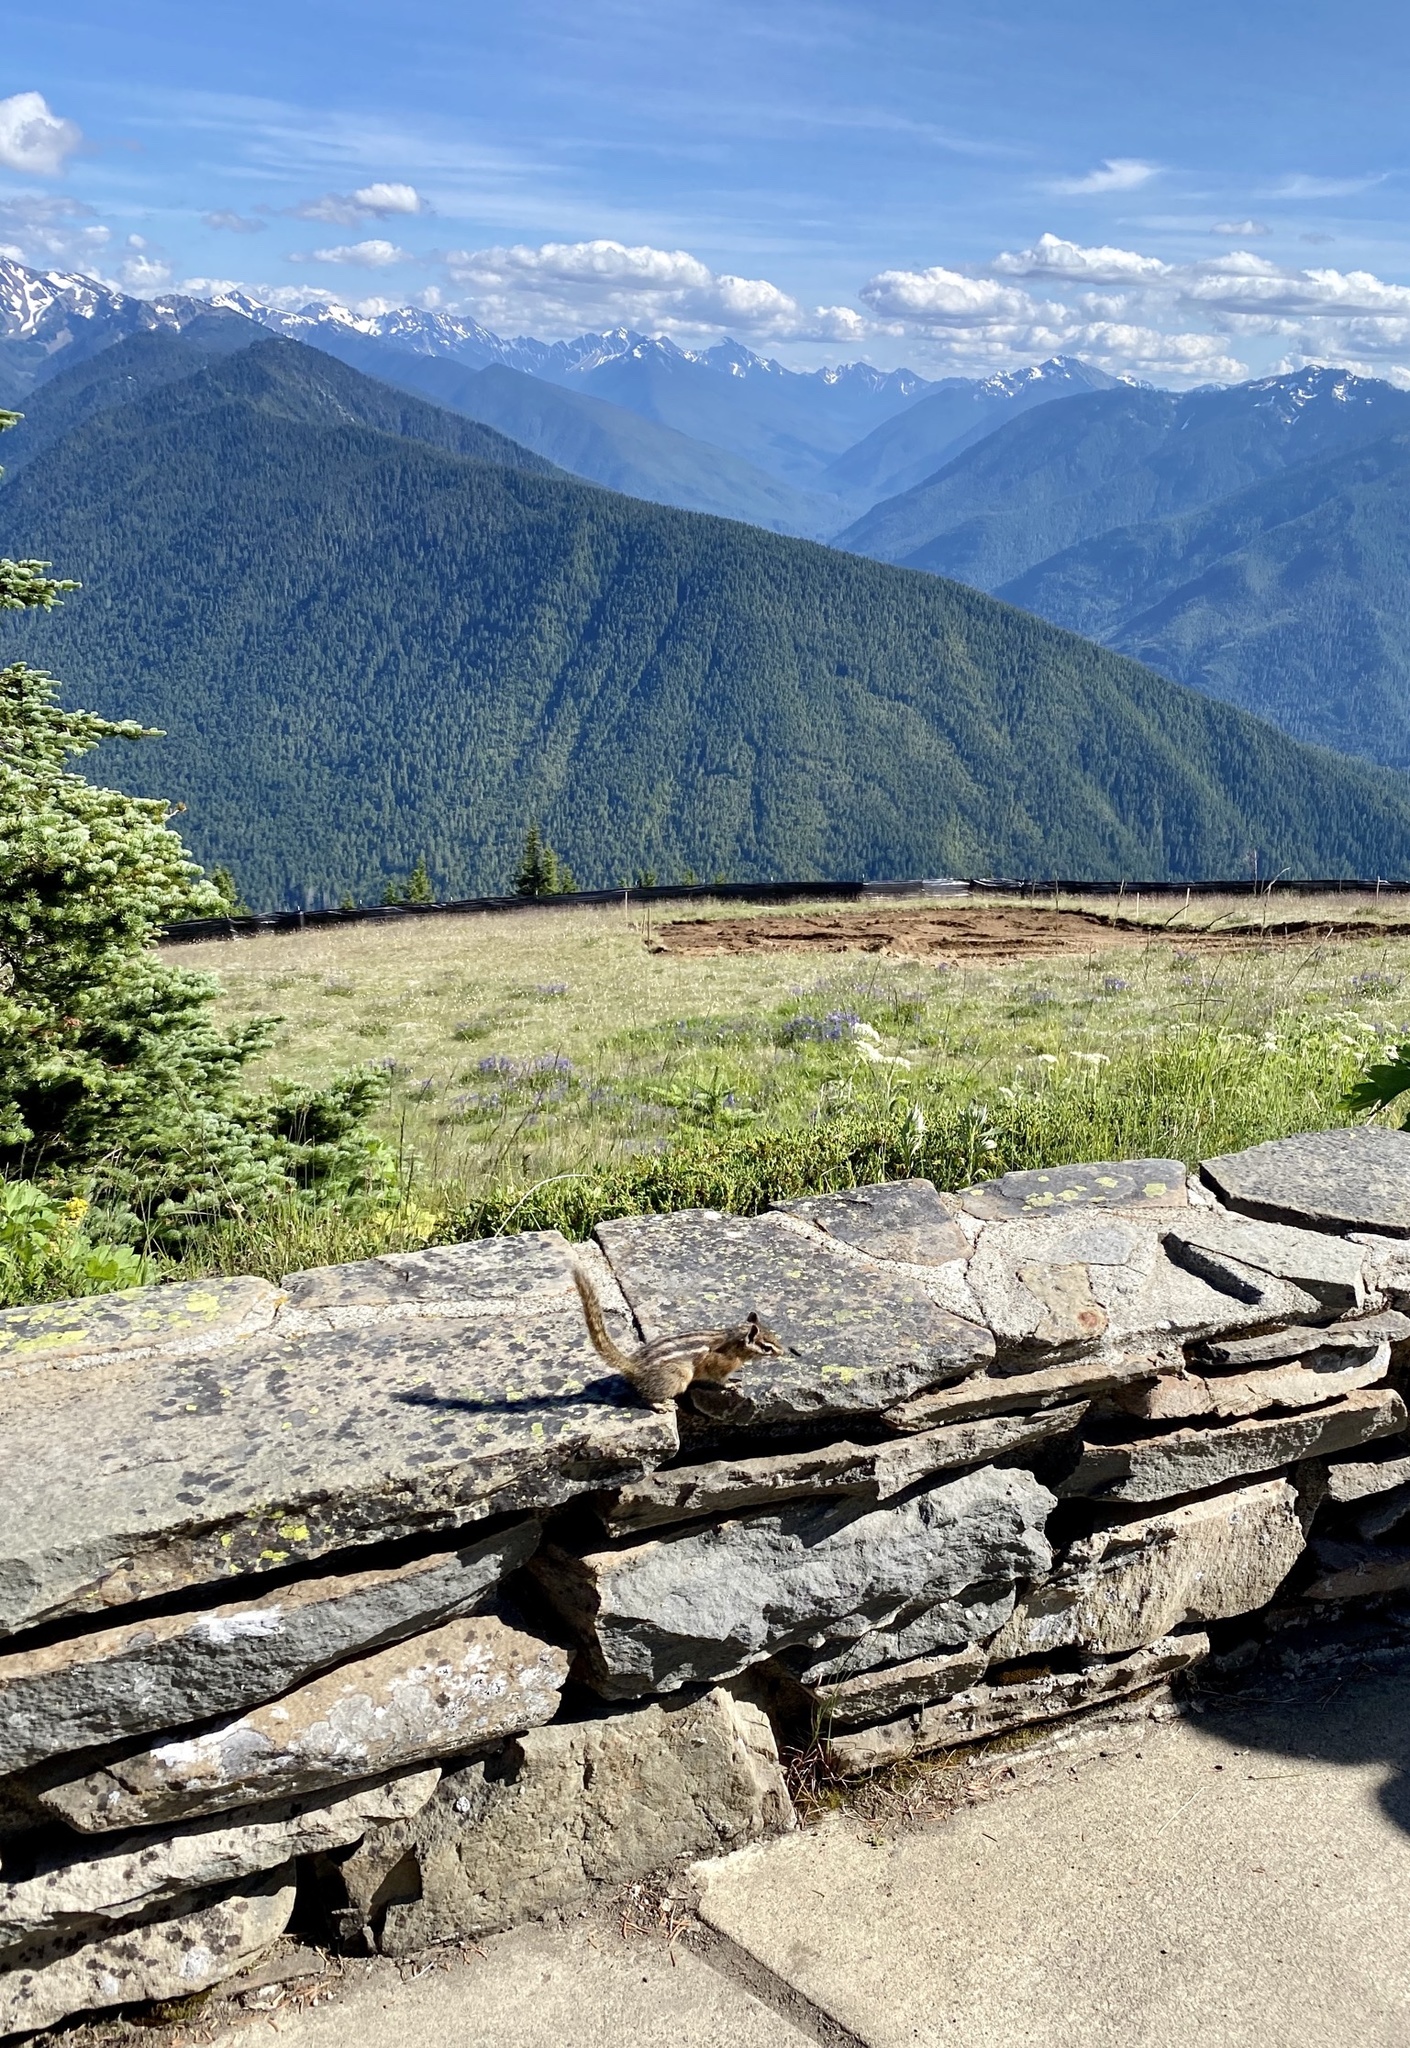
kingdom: Animalia
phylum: Chordata
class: Mammalia
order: Rodentia
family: Sciuridae
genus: Tamias
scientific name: Tamias amoenus
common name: Yellow-pine chipmunk
